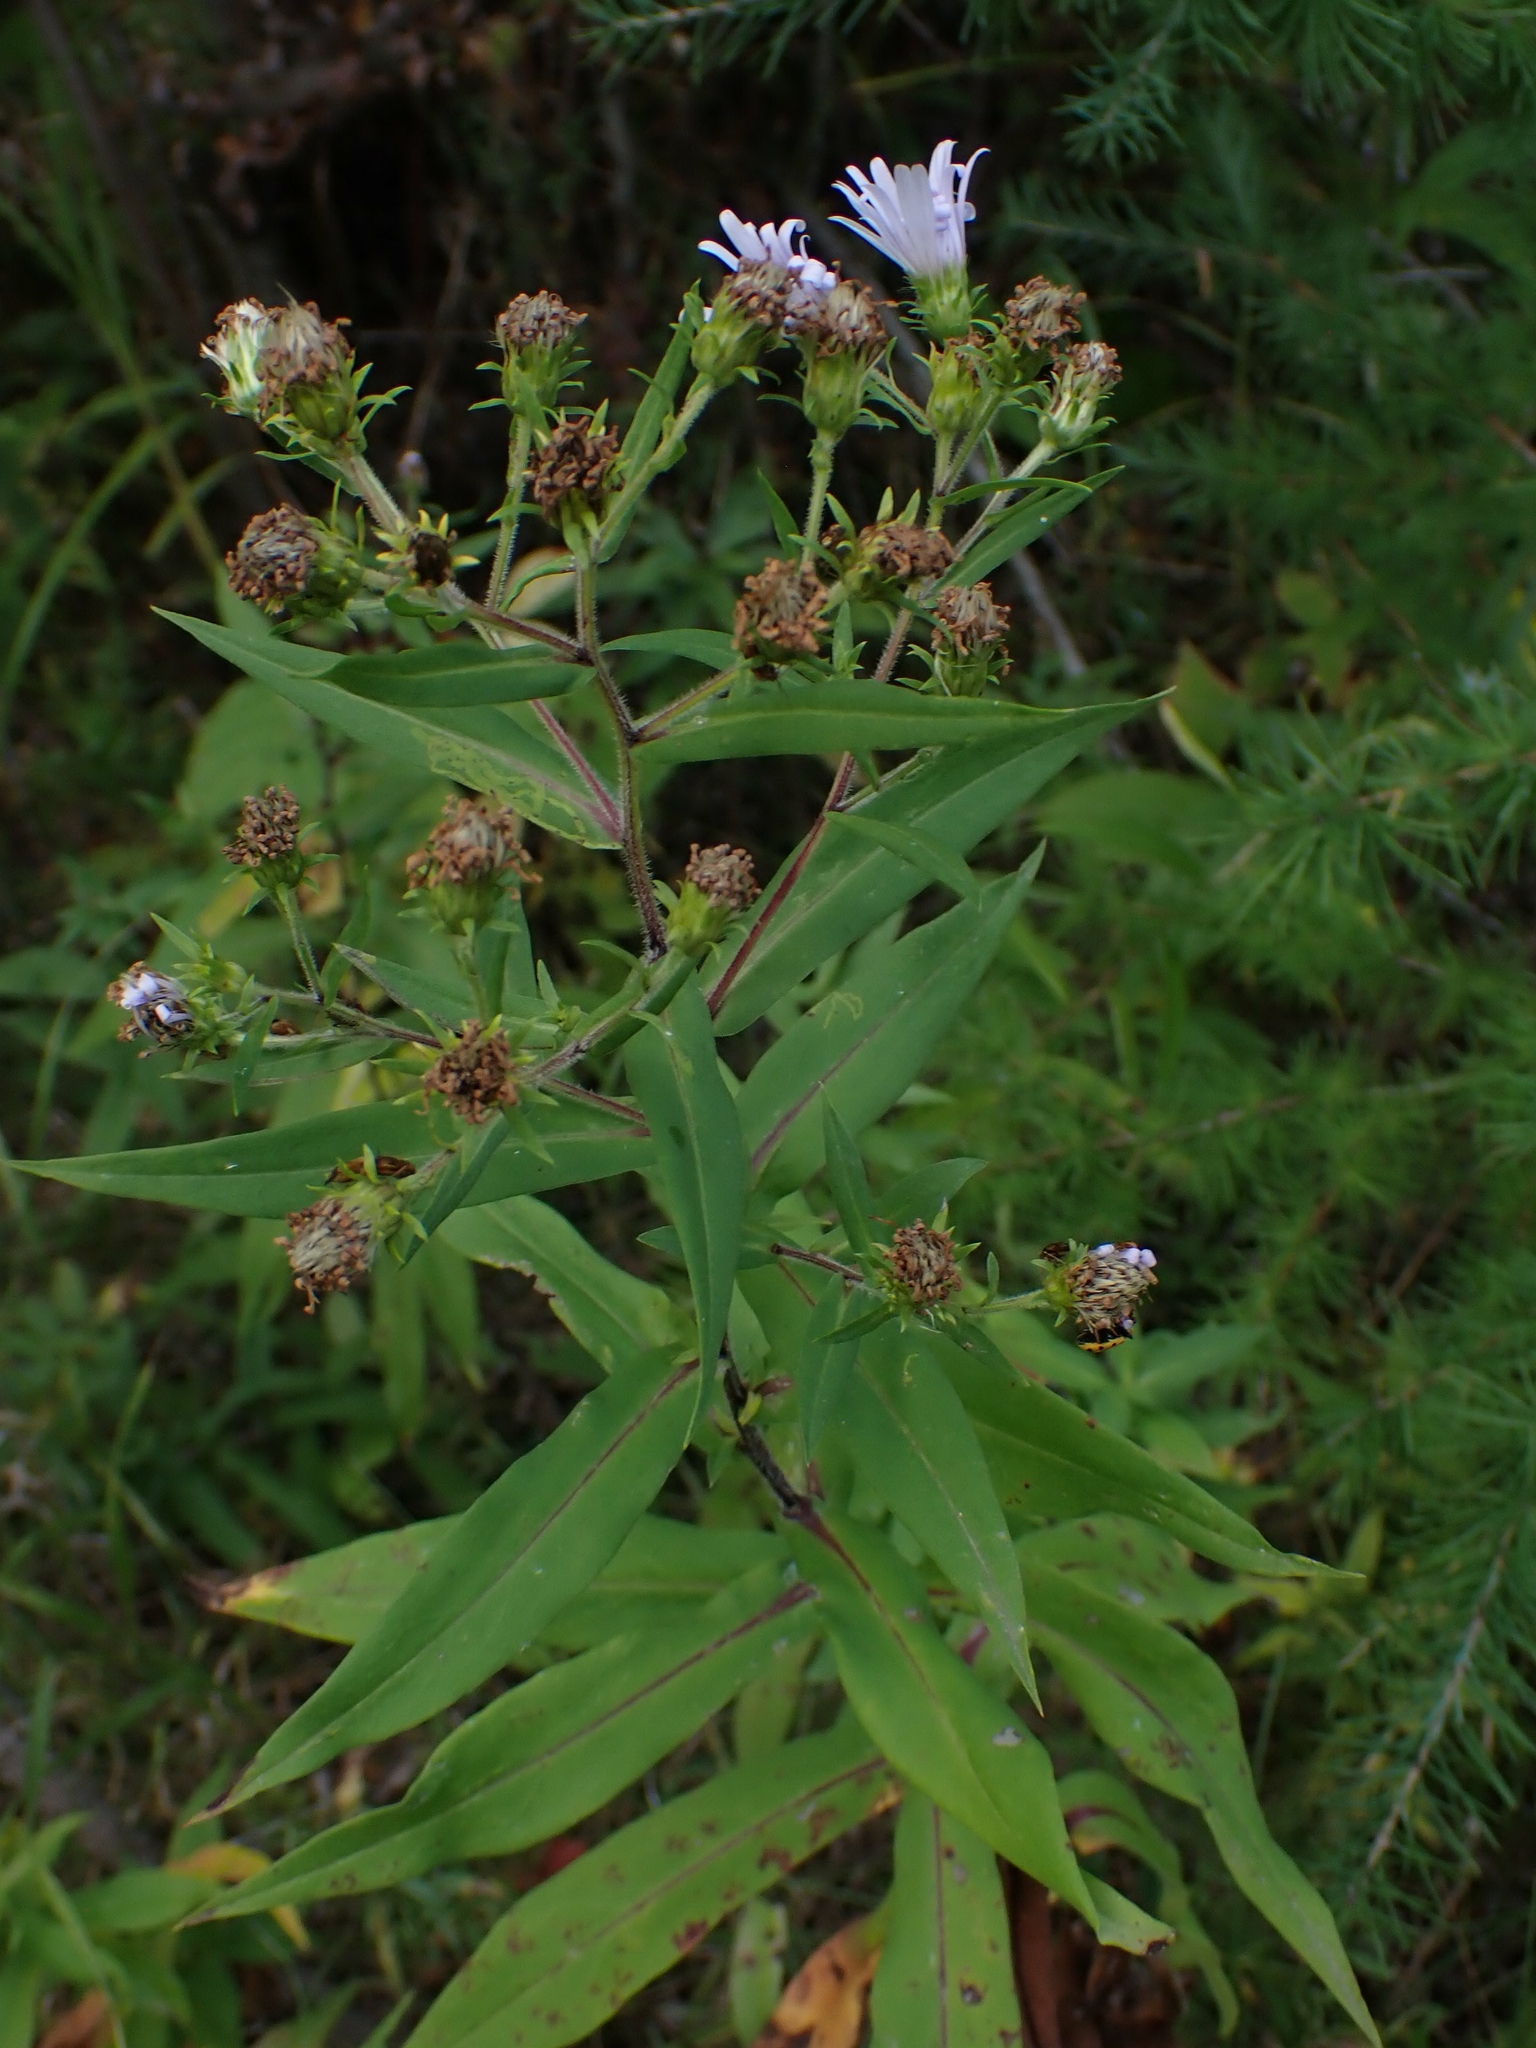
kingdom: Plantae
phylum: Tracheophyta
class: Magnoliopsida
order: Asterales
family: Asteraceae
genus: Symphyotrichum
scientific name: Symphyotrichum puniceum
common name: Bog aster
